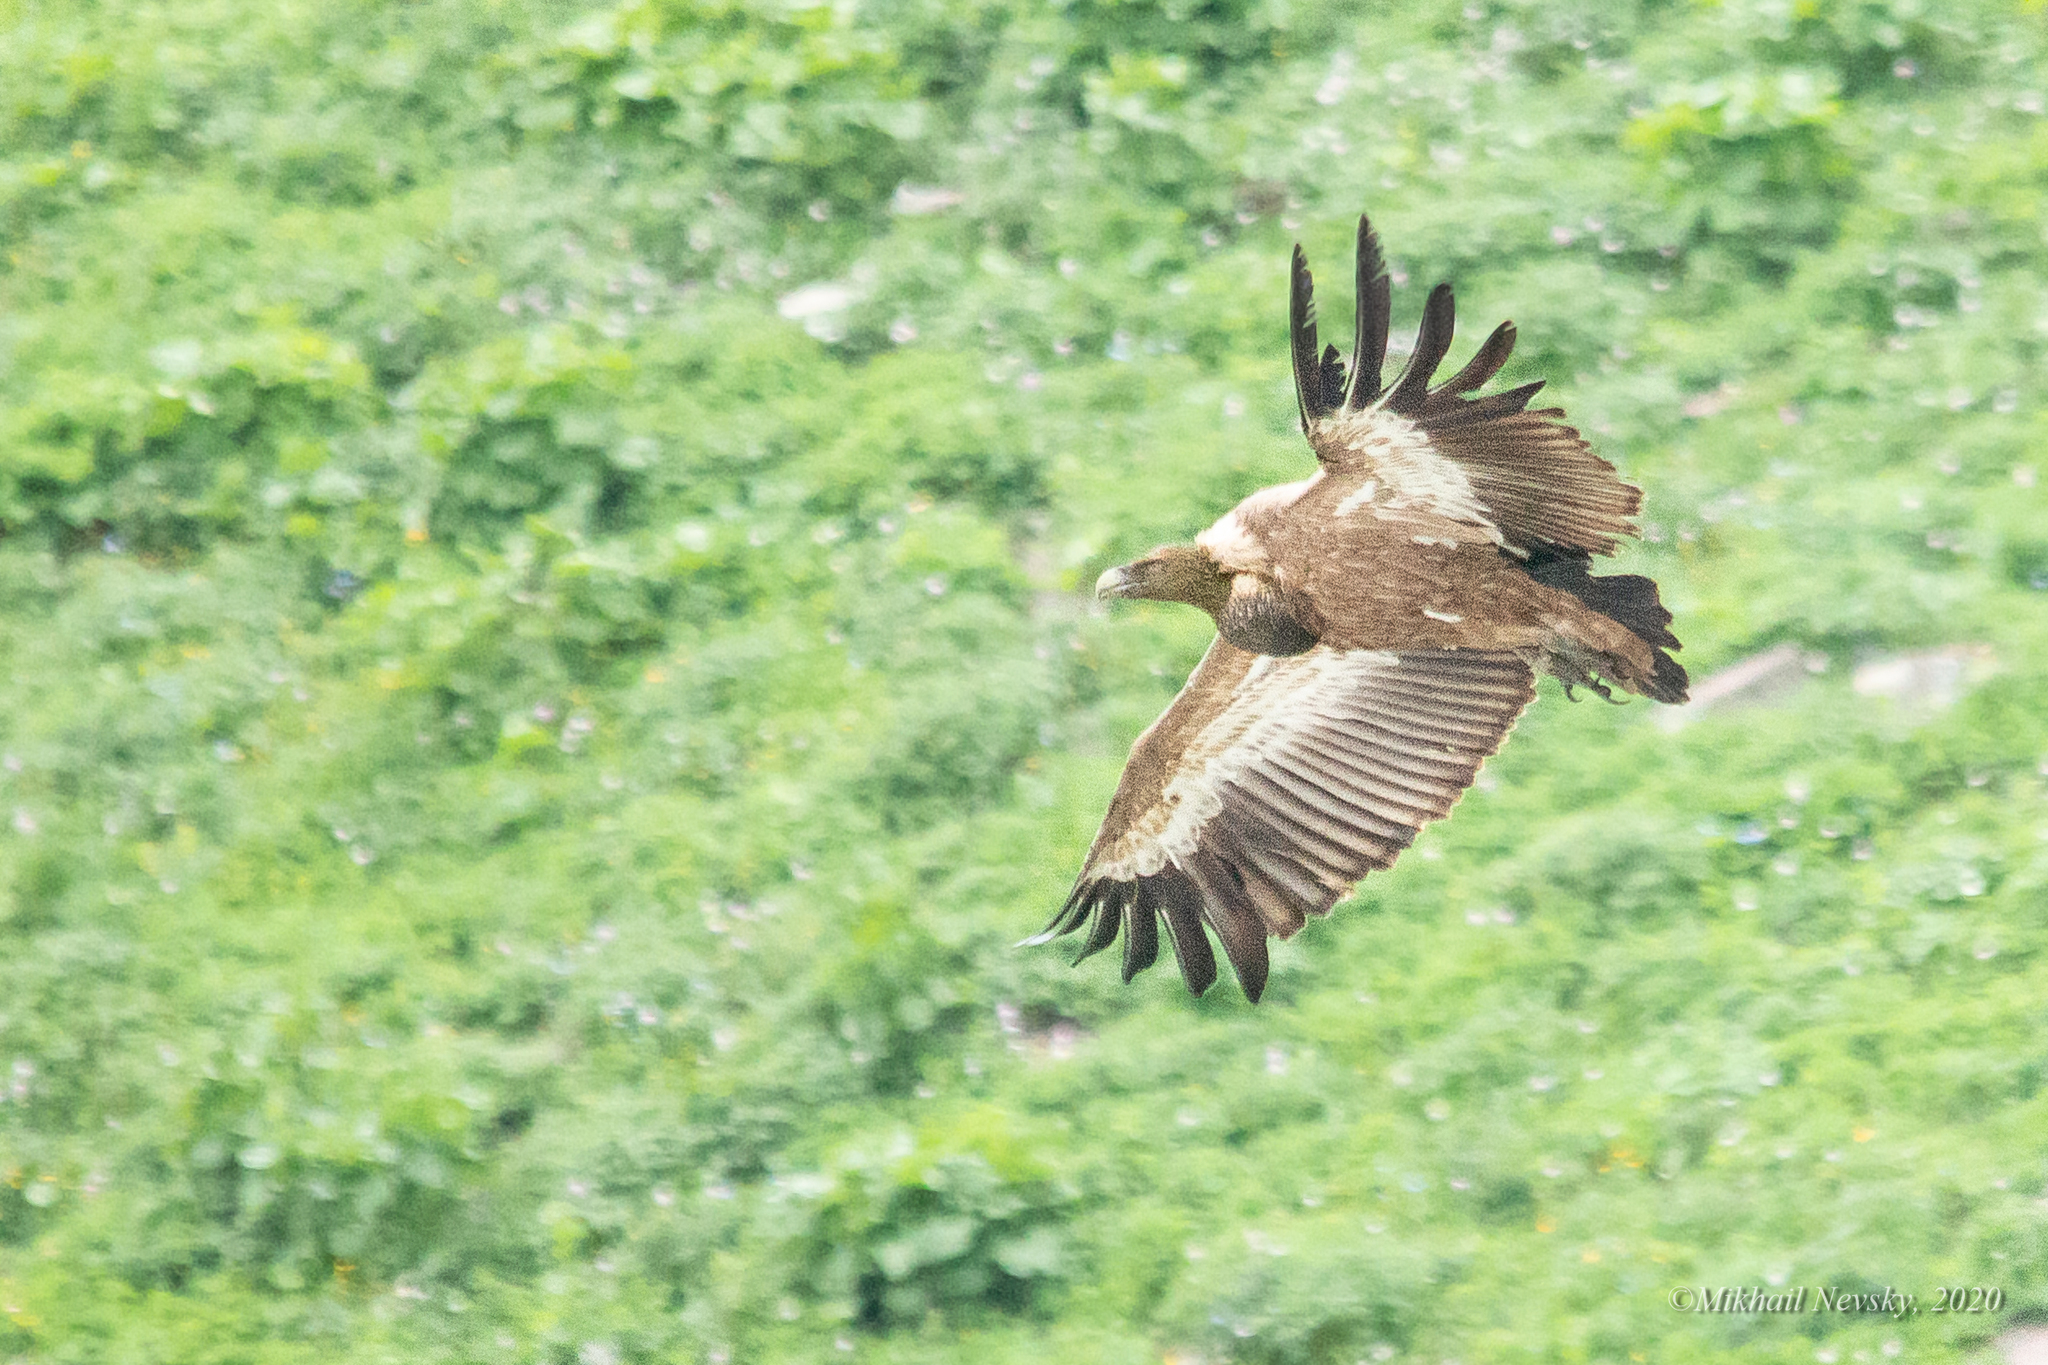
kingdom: Animalia
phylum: Chordata
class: Aves
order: Accipitriformes
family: Accipitridae
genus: Gyps
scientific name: Gyps fulvus
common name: Griffon vulture
